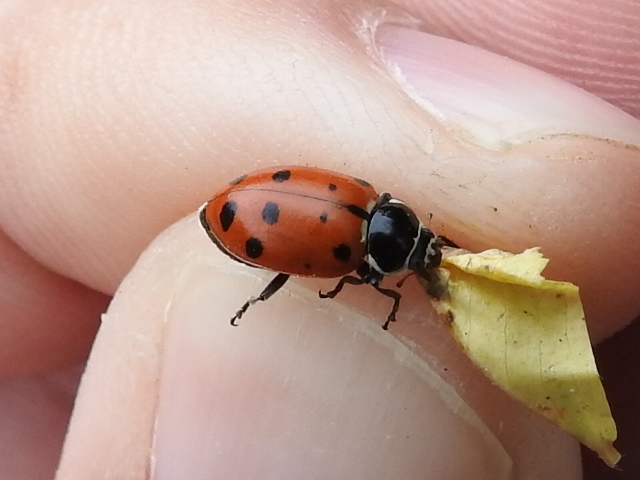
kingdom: Animalia
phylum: Arthropoda
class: Insecta
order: Coleoptera
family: Coccinellidae
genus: Hippodamia
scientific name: Hippodamia convergens
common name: Convergent lady beetle
